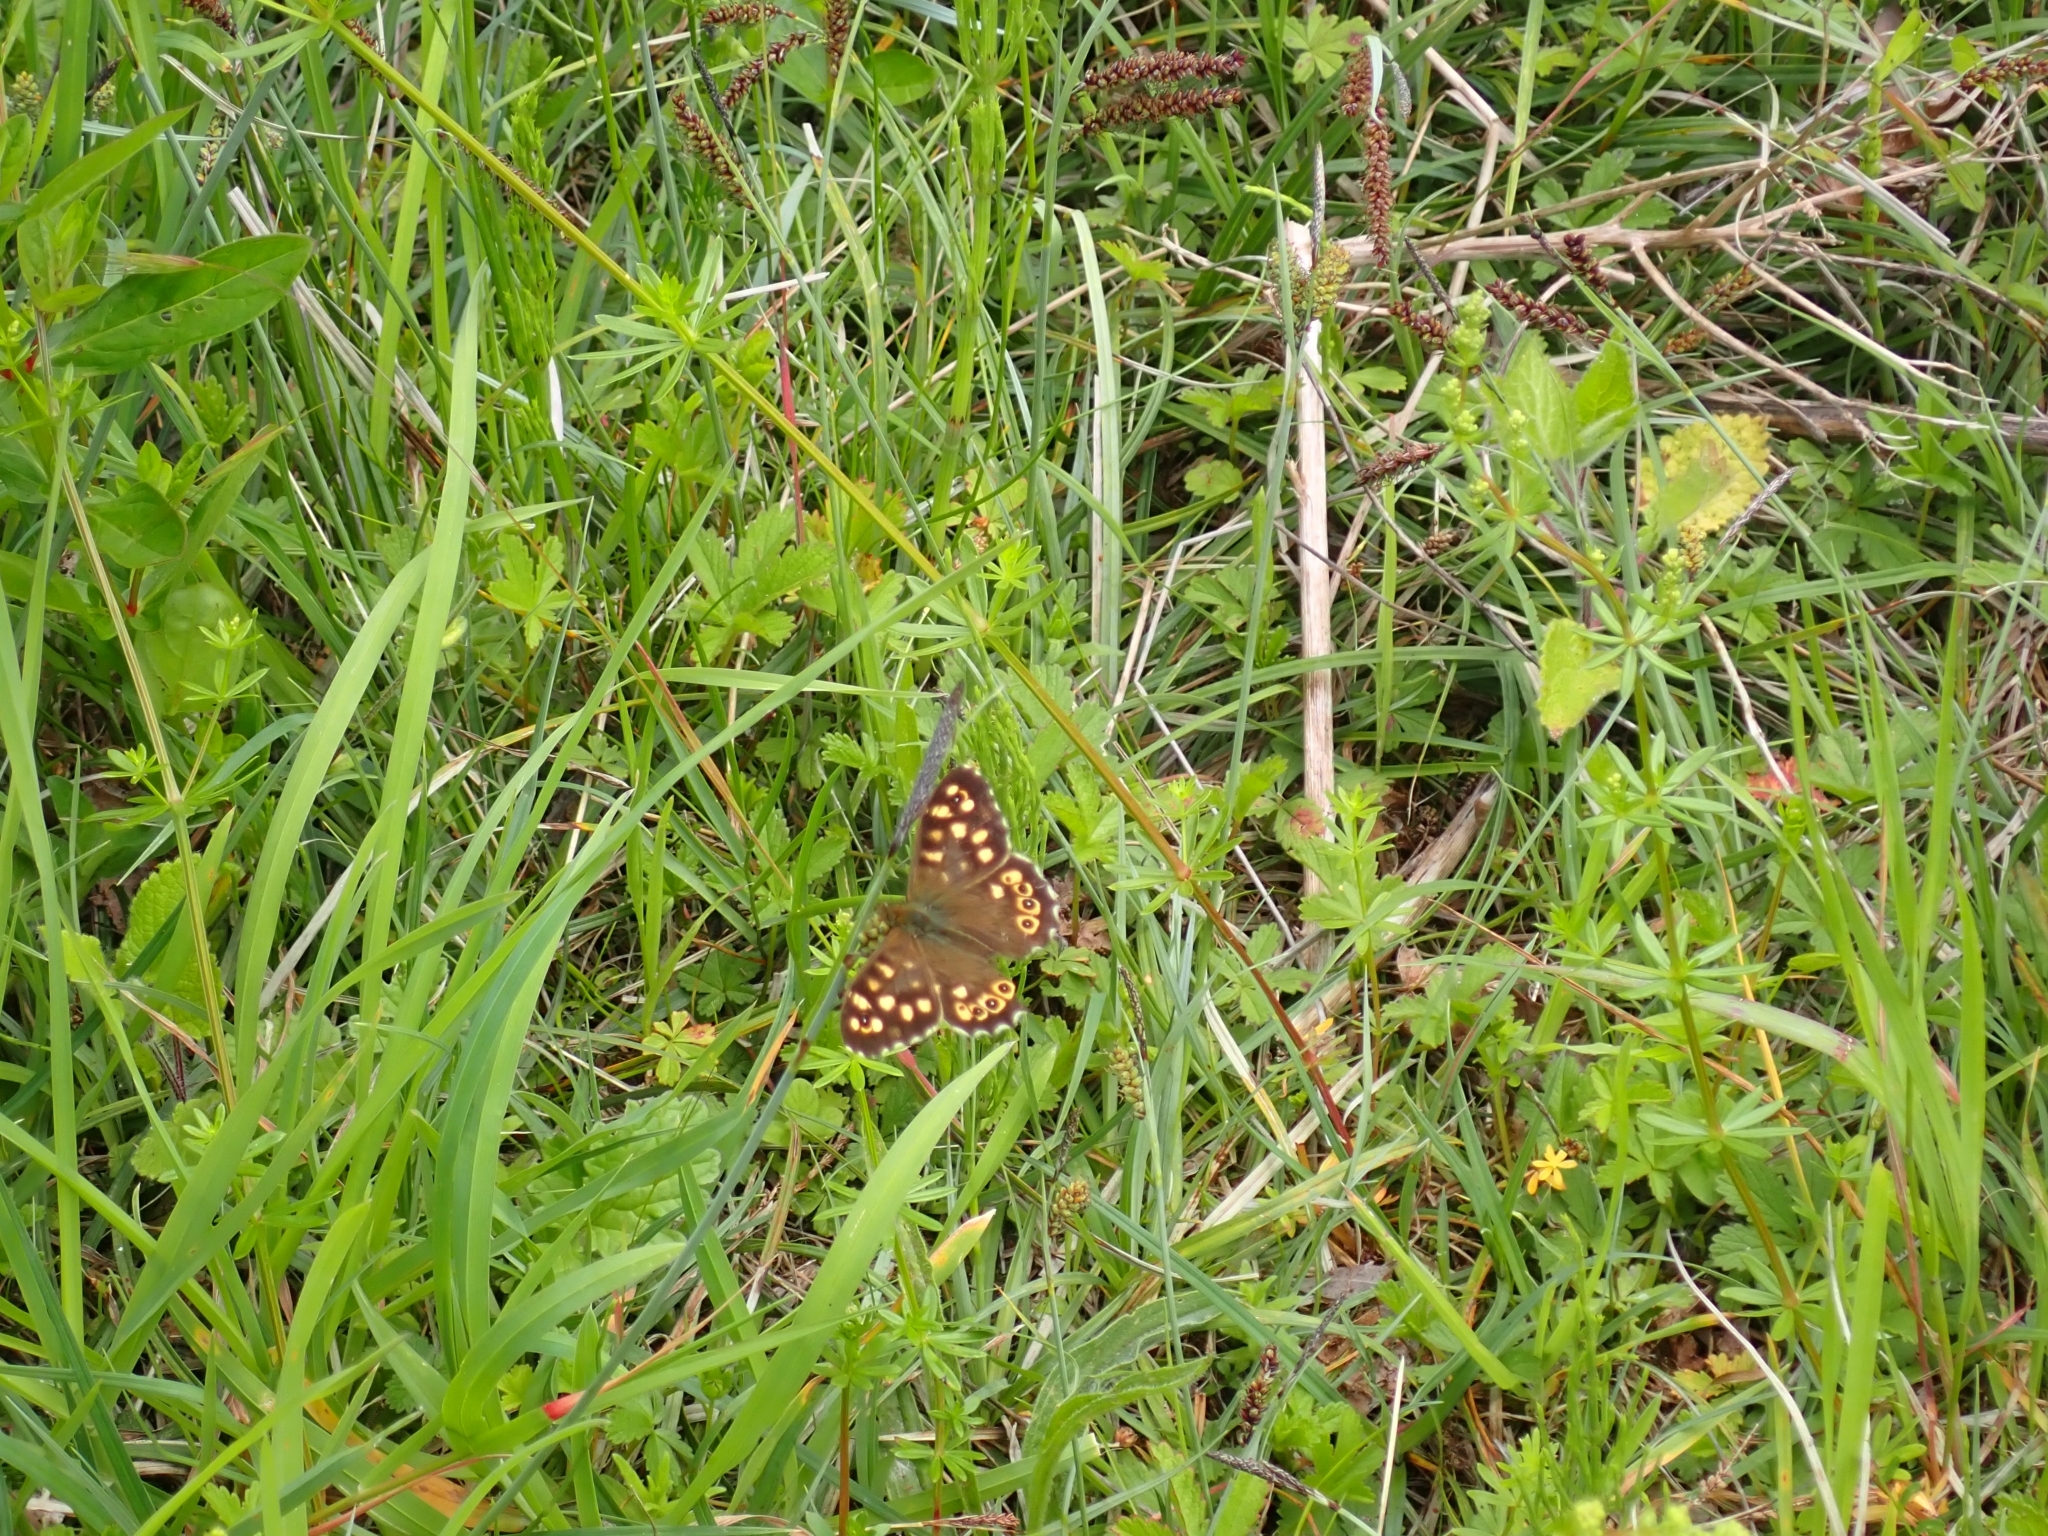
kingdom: Animalia
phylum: Arthropoda
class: Insecta
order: Lepidoptera
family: Nymphalidae
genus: Pararge
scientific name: Pararge aegeria
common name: Speckled wood
